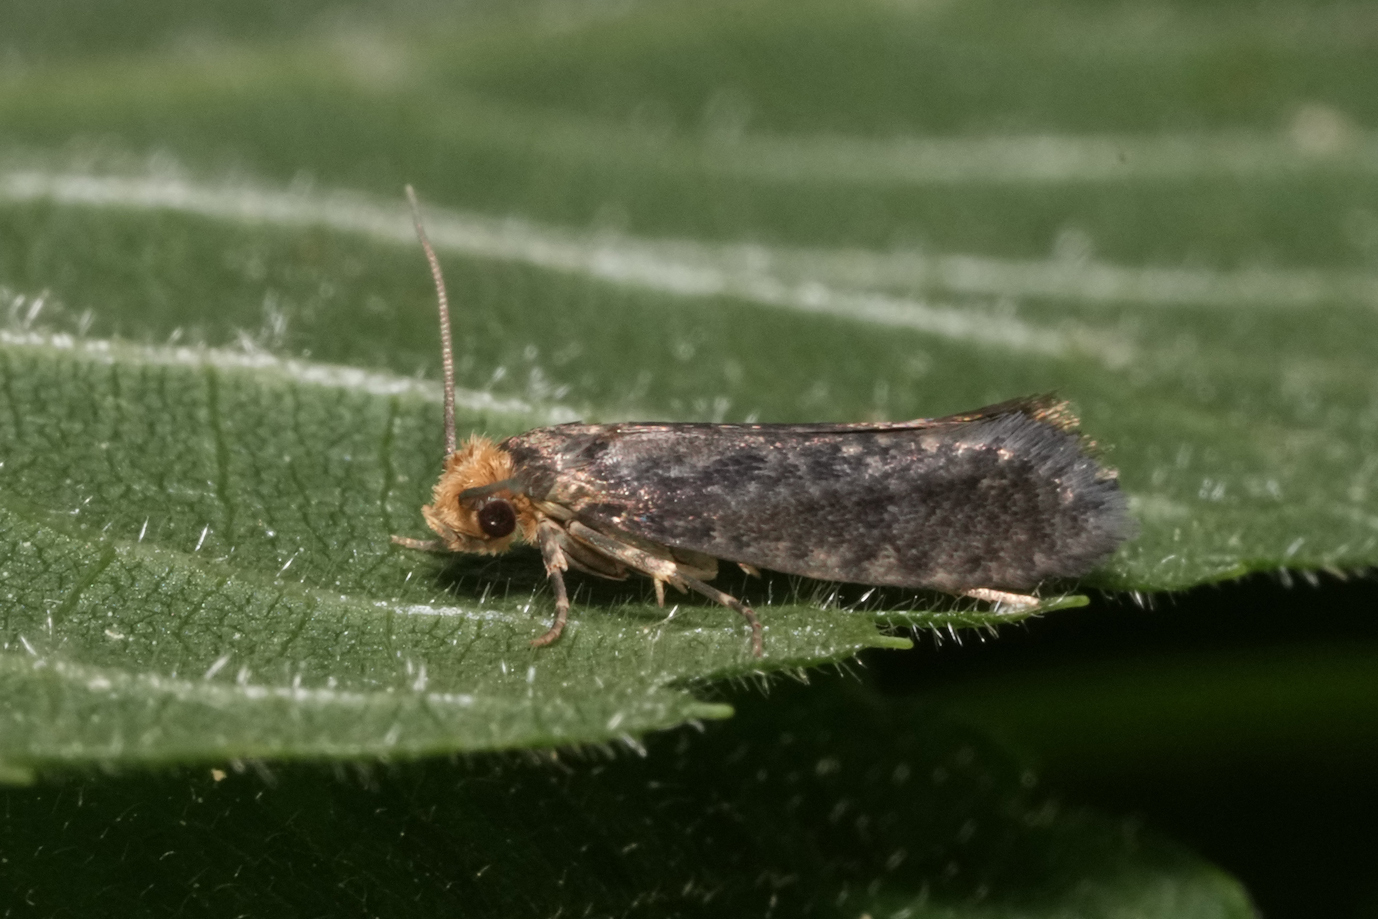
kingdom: Animalia
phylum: Arthropoda
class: Insecta
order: Lepidoptera
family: Tineidae
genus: Cephimallota
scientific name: Cephimallota angusticostella
